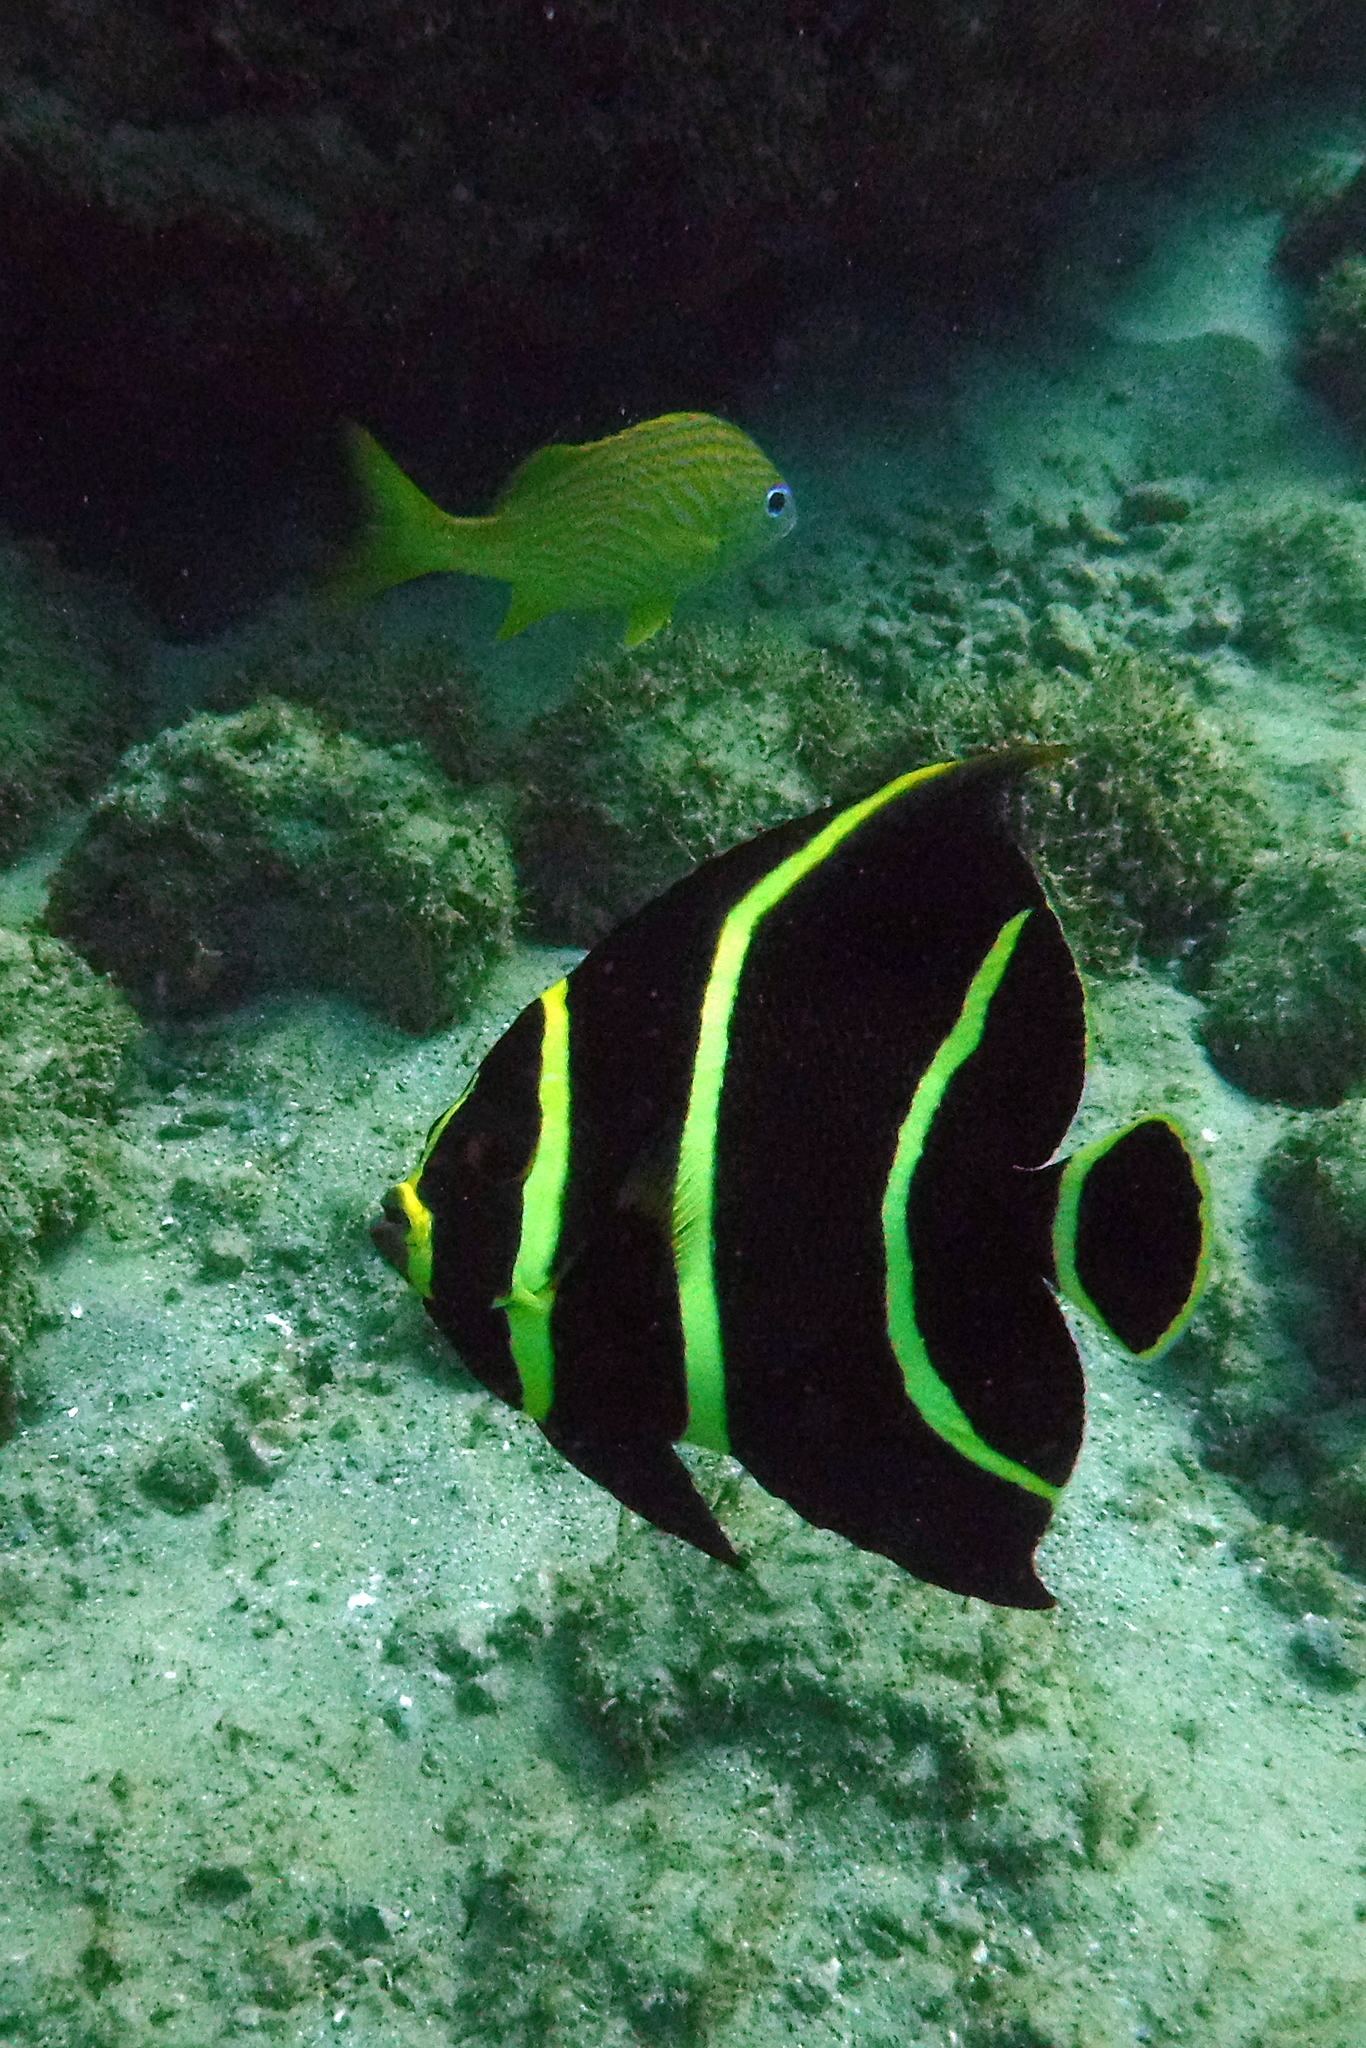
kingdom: Animalia
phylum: Chordata
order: Perciformes
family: Pomacanthidae
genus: Pomacanthus
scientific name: Pomacanthus paru
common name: French angelfish
